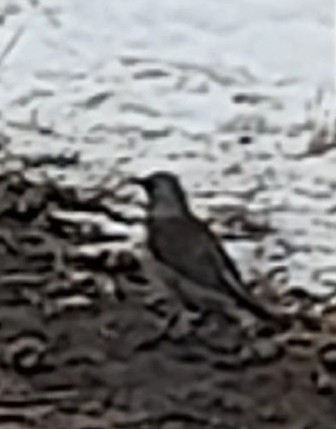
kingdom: Animalia
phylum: Chordata
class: Aves
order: Passeriformes
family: Turdidae
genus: Turdus
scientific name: Turdus pilaris
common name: Fieldfare
